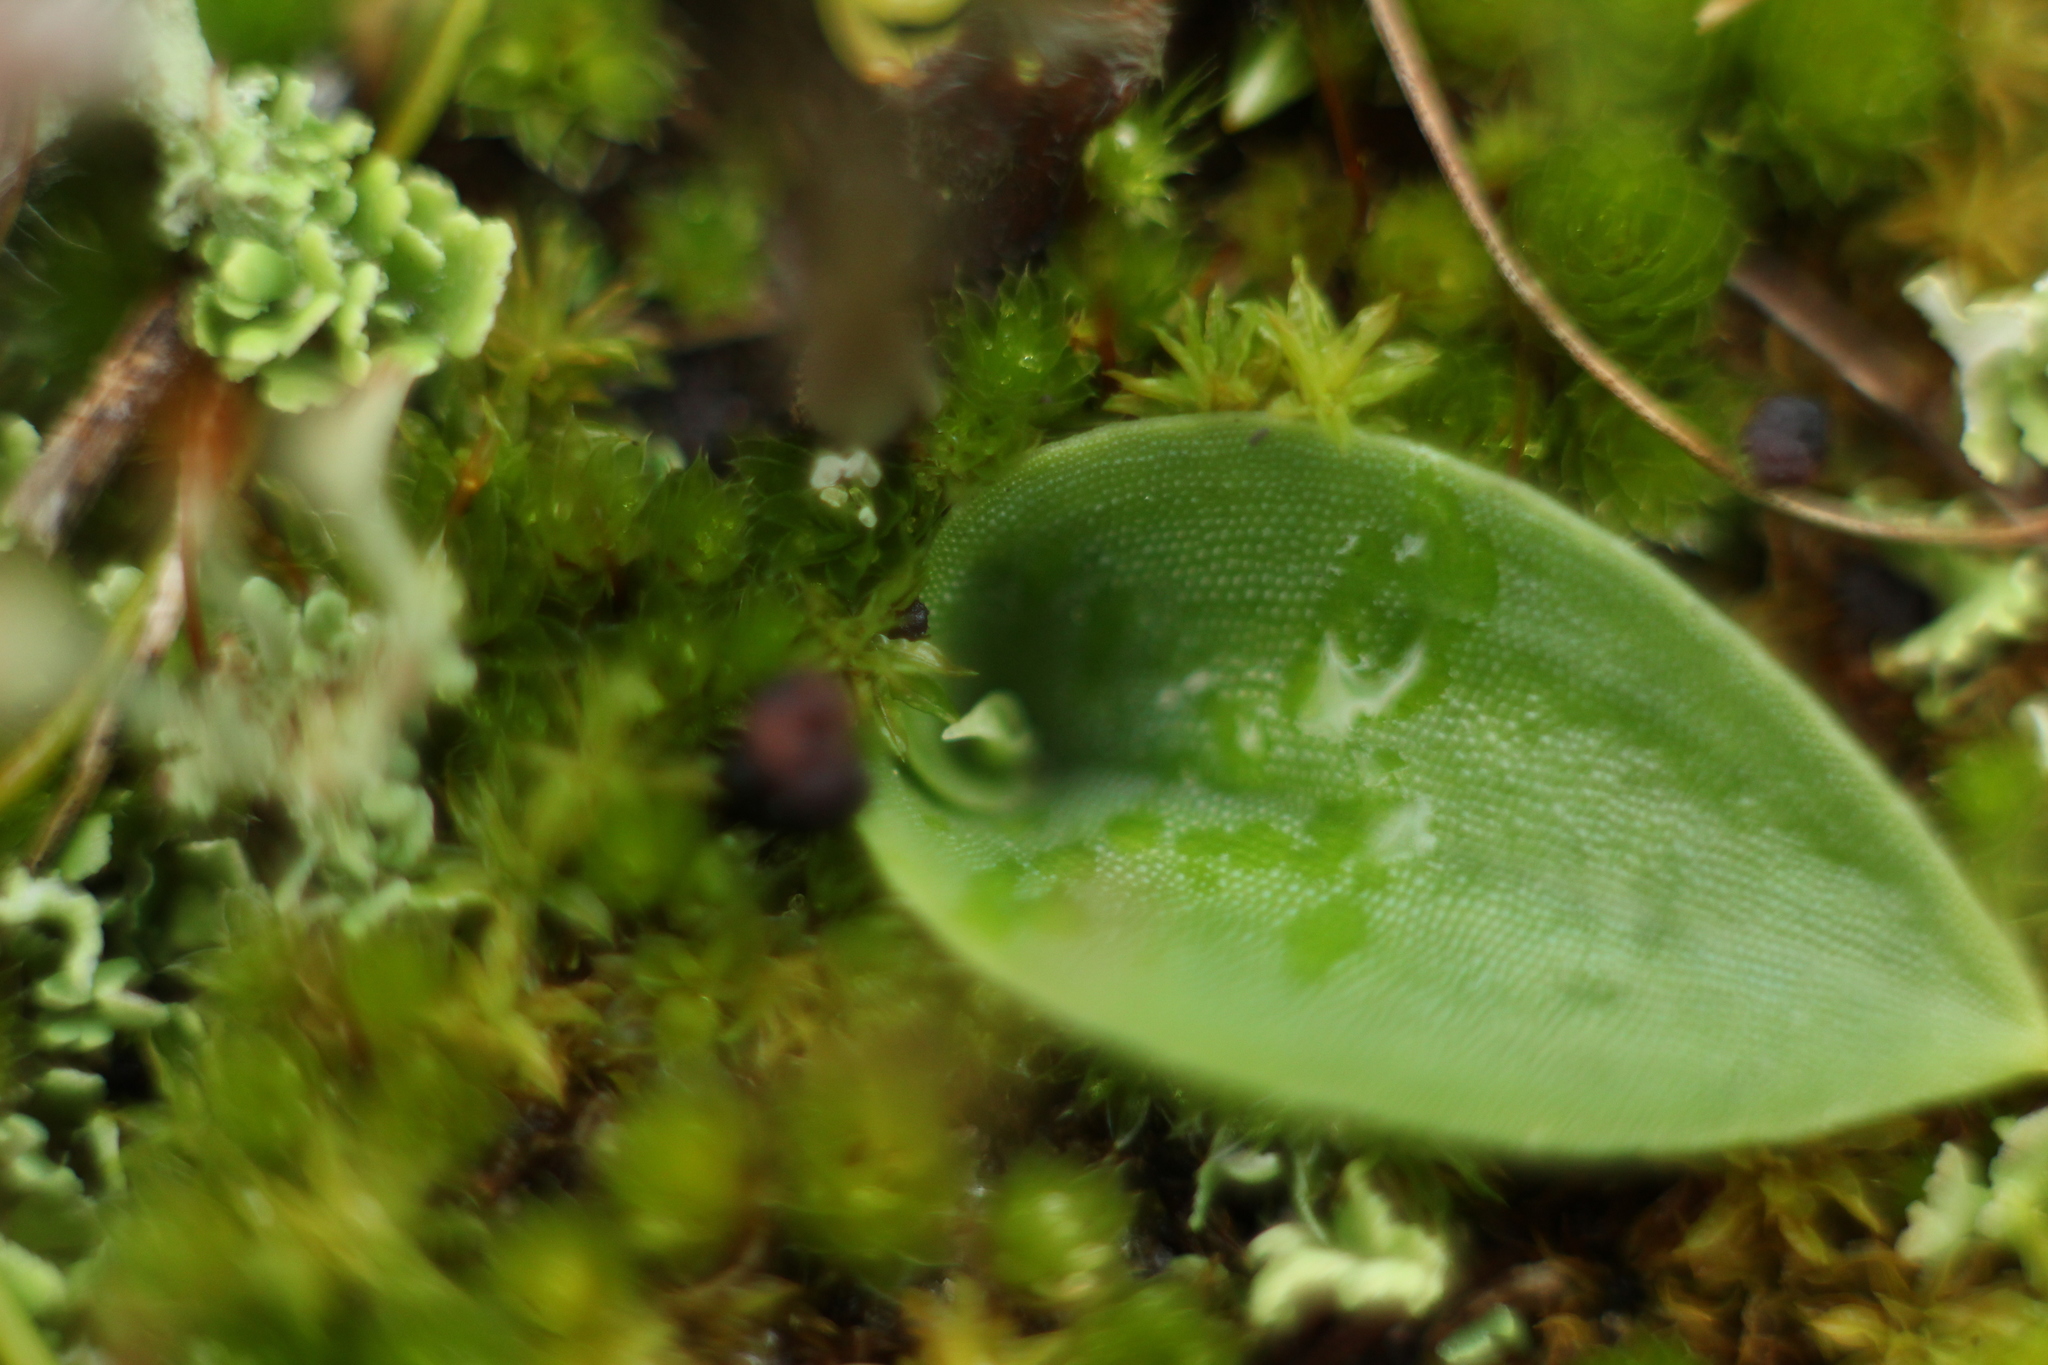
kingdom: Plantae
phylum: Tracheophyta
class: Liliopsida
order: Asparagales
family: Orchidaceae
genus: Leptoceras
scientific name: Leptoceras menziesii
